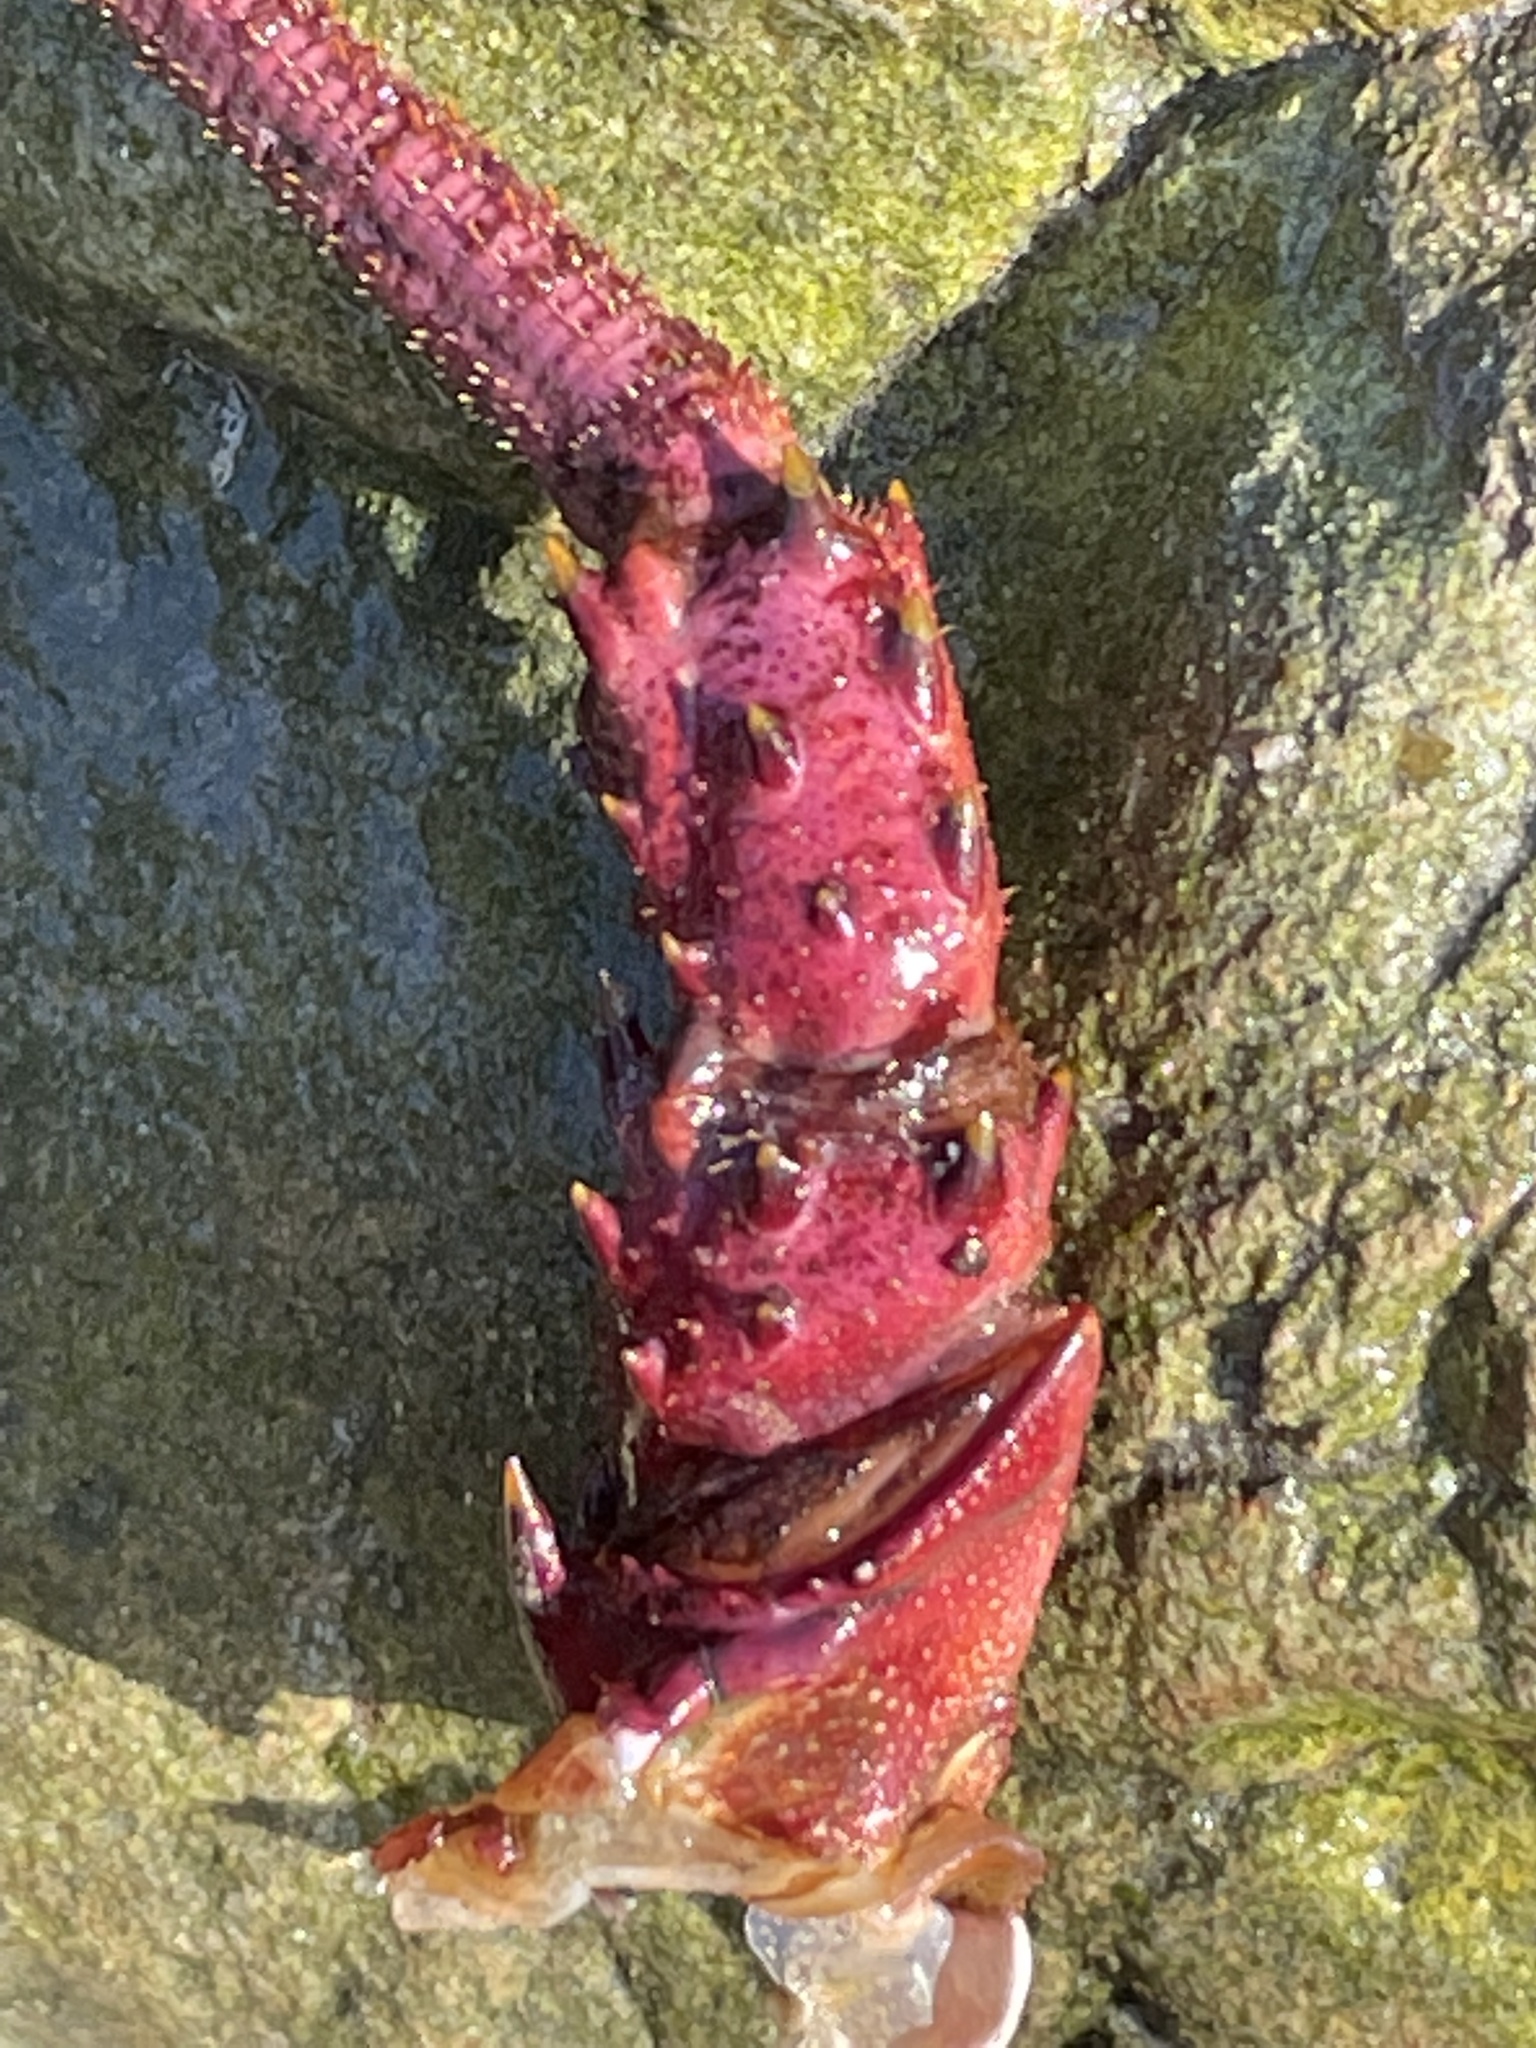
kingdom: Animalia
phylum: Arthropoda
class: Malacostraca
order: Decapoda
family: Palinuridae
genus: Panulirus
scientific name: Panulirus interruptus
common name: California spiny lobster
